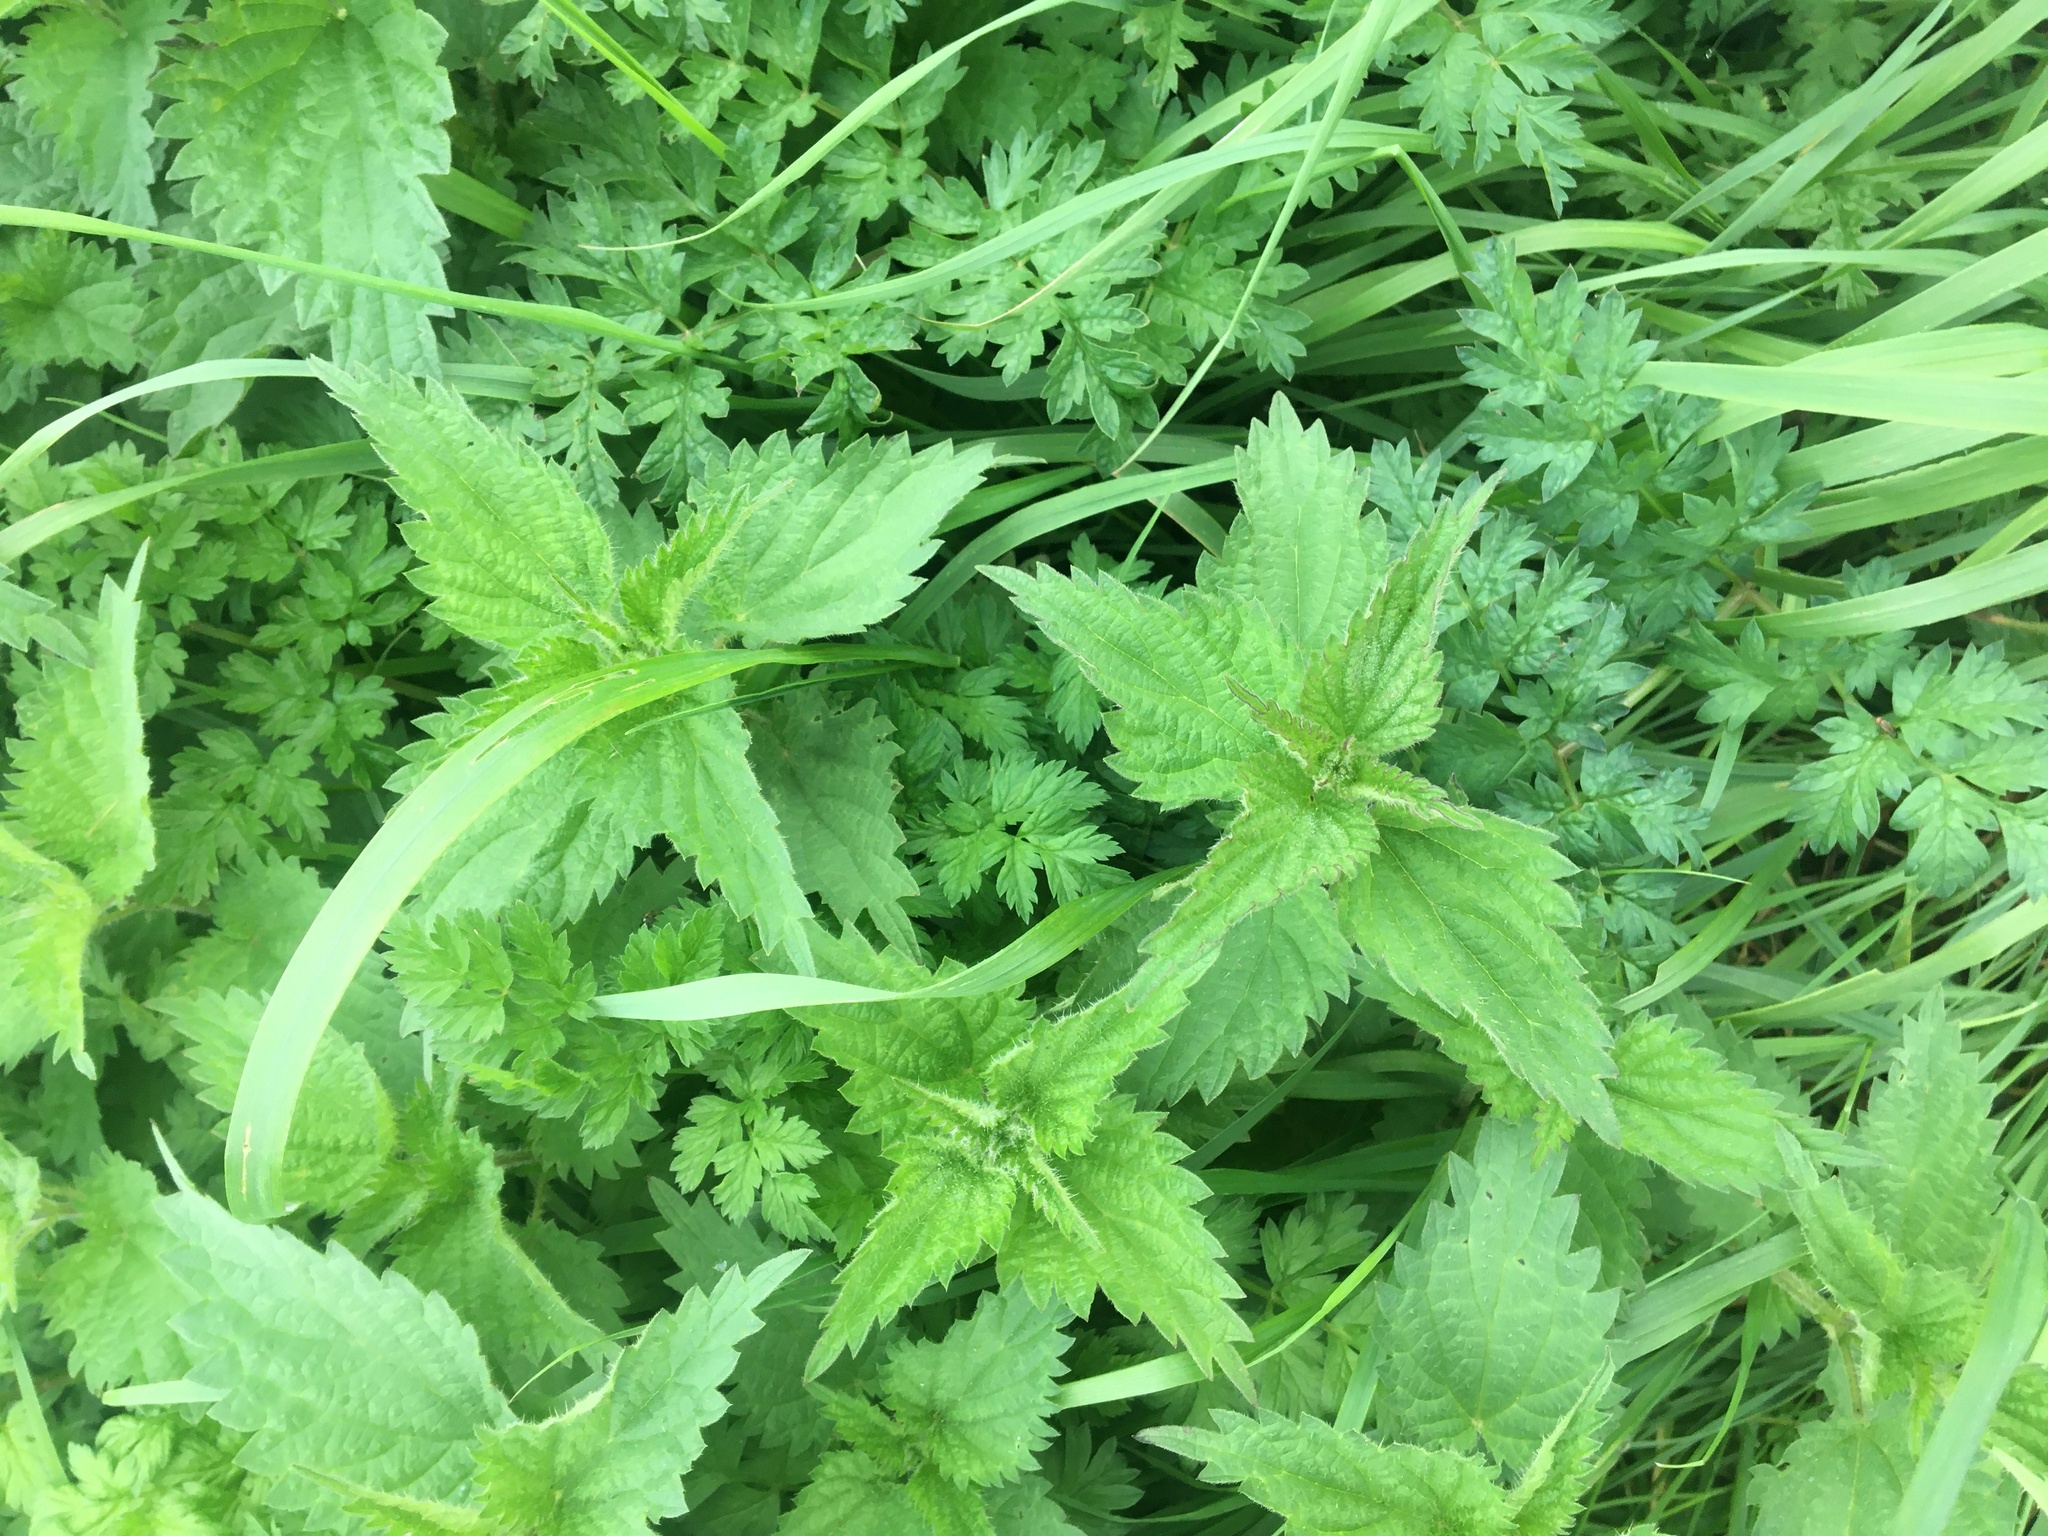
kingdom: Plantae
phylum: Tracheophyta
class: Magnoliopsida
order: Rosales
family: Urticaceae
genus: Urtica
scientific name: Urtica dioica
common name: Common nettle
